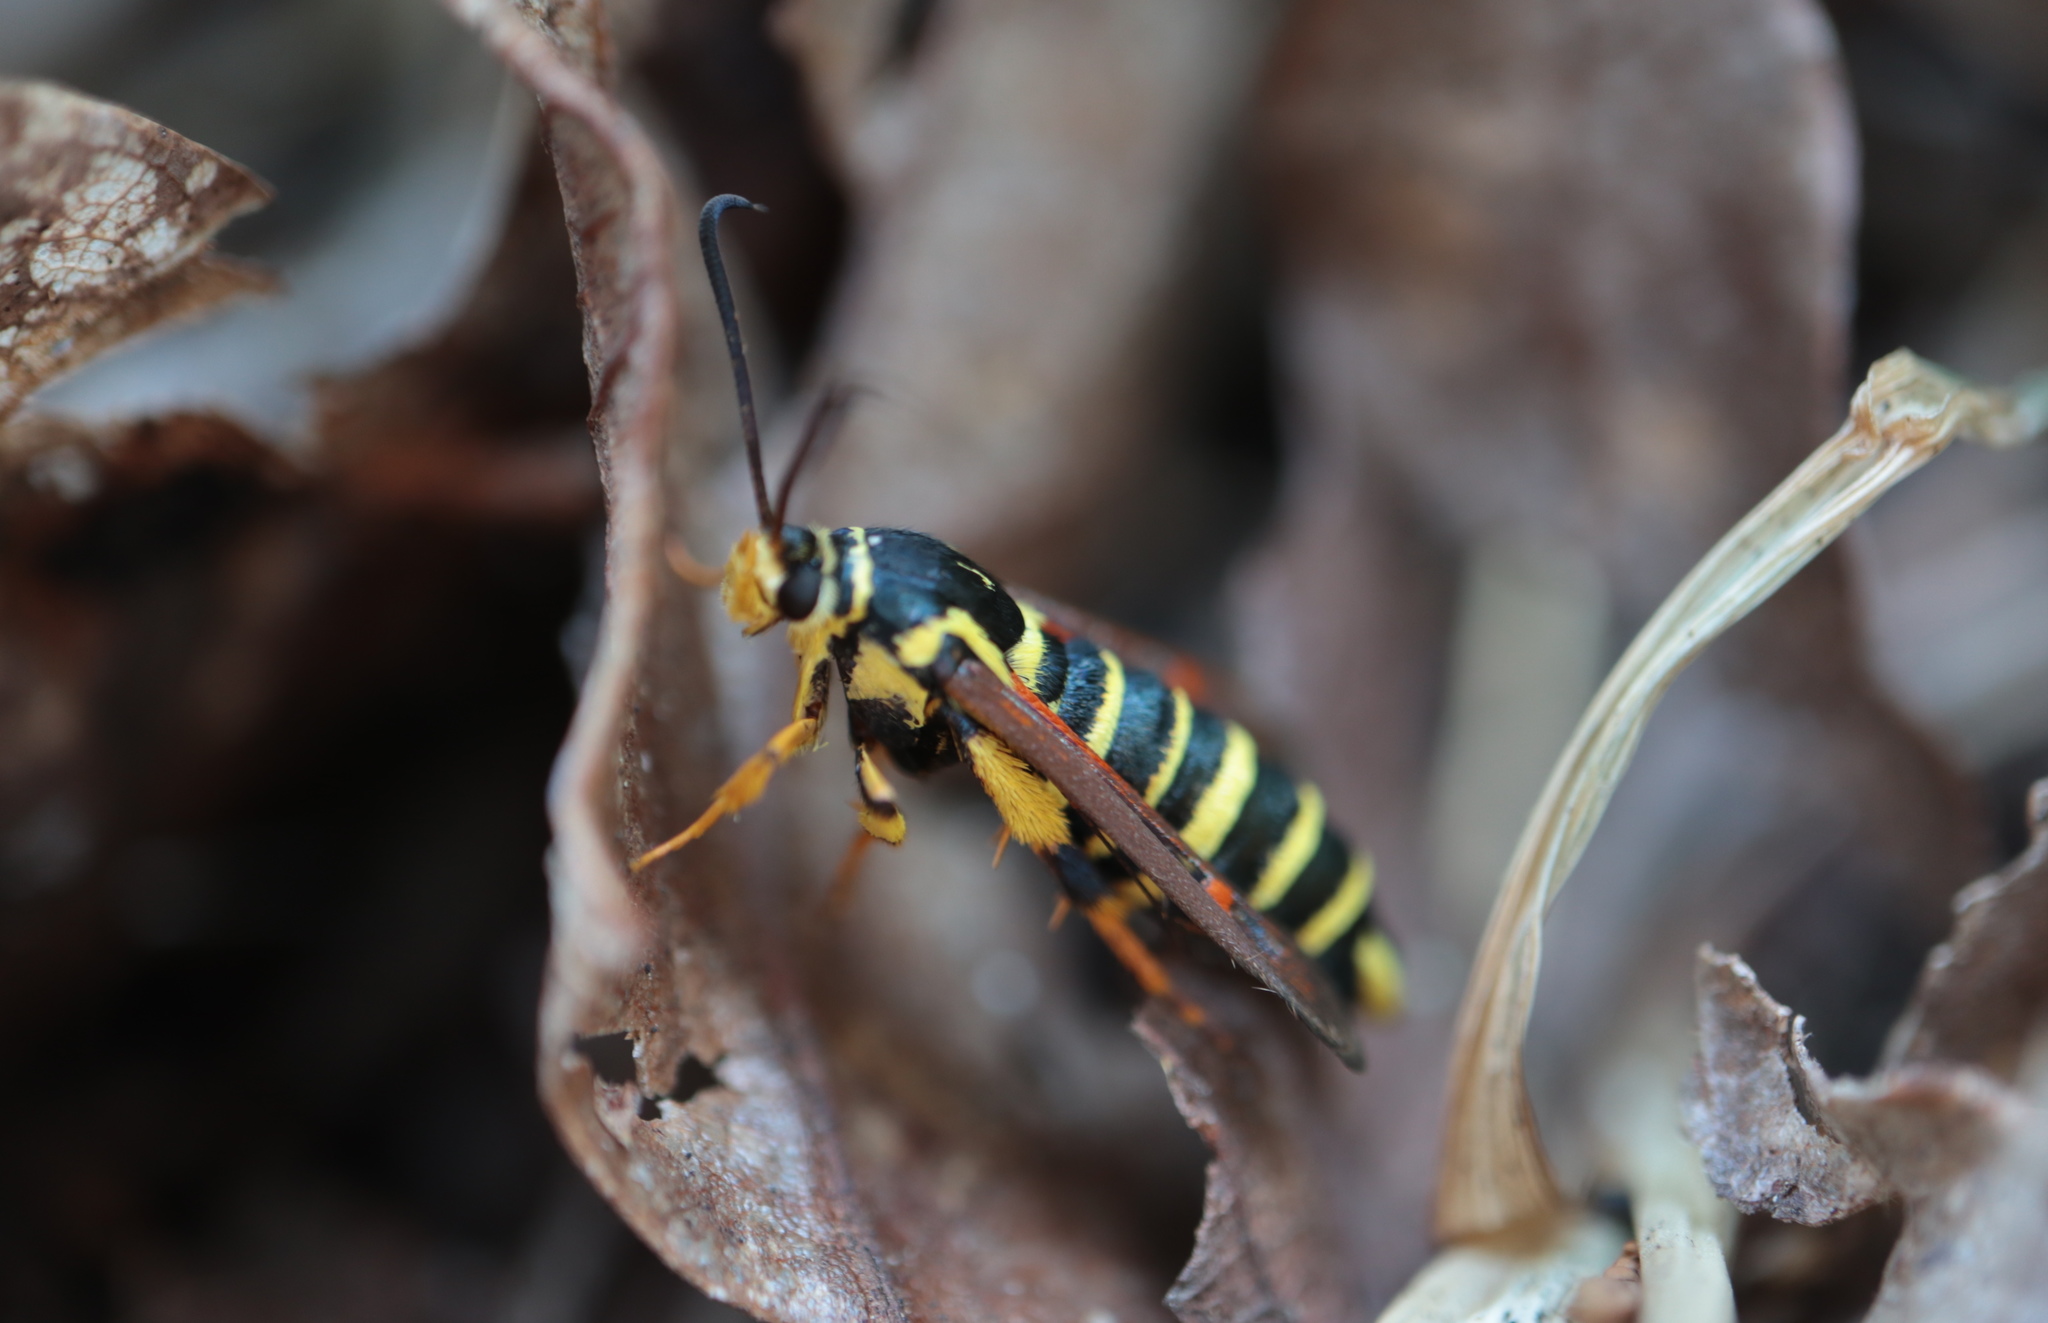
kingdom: Animalia
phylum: Arthropoda
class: Insecta
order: Lepidoptera
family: Sesiidae
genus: Synanthedon
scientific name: Synanthedon rileyana
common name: Riley's clearwing moth
